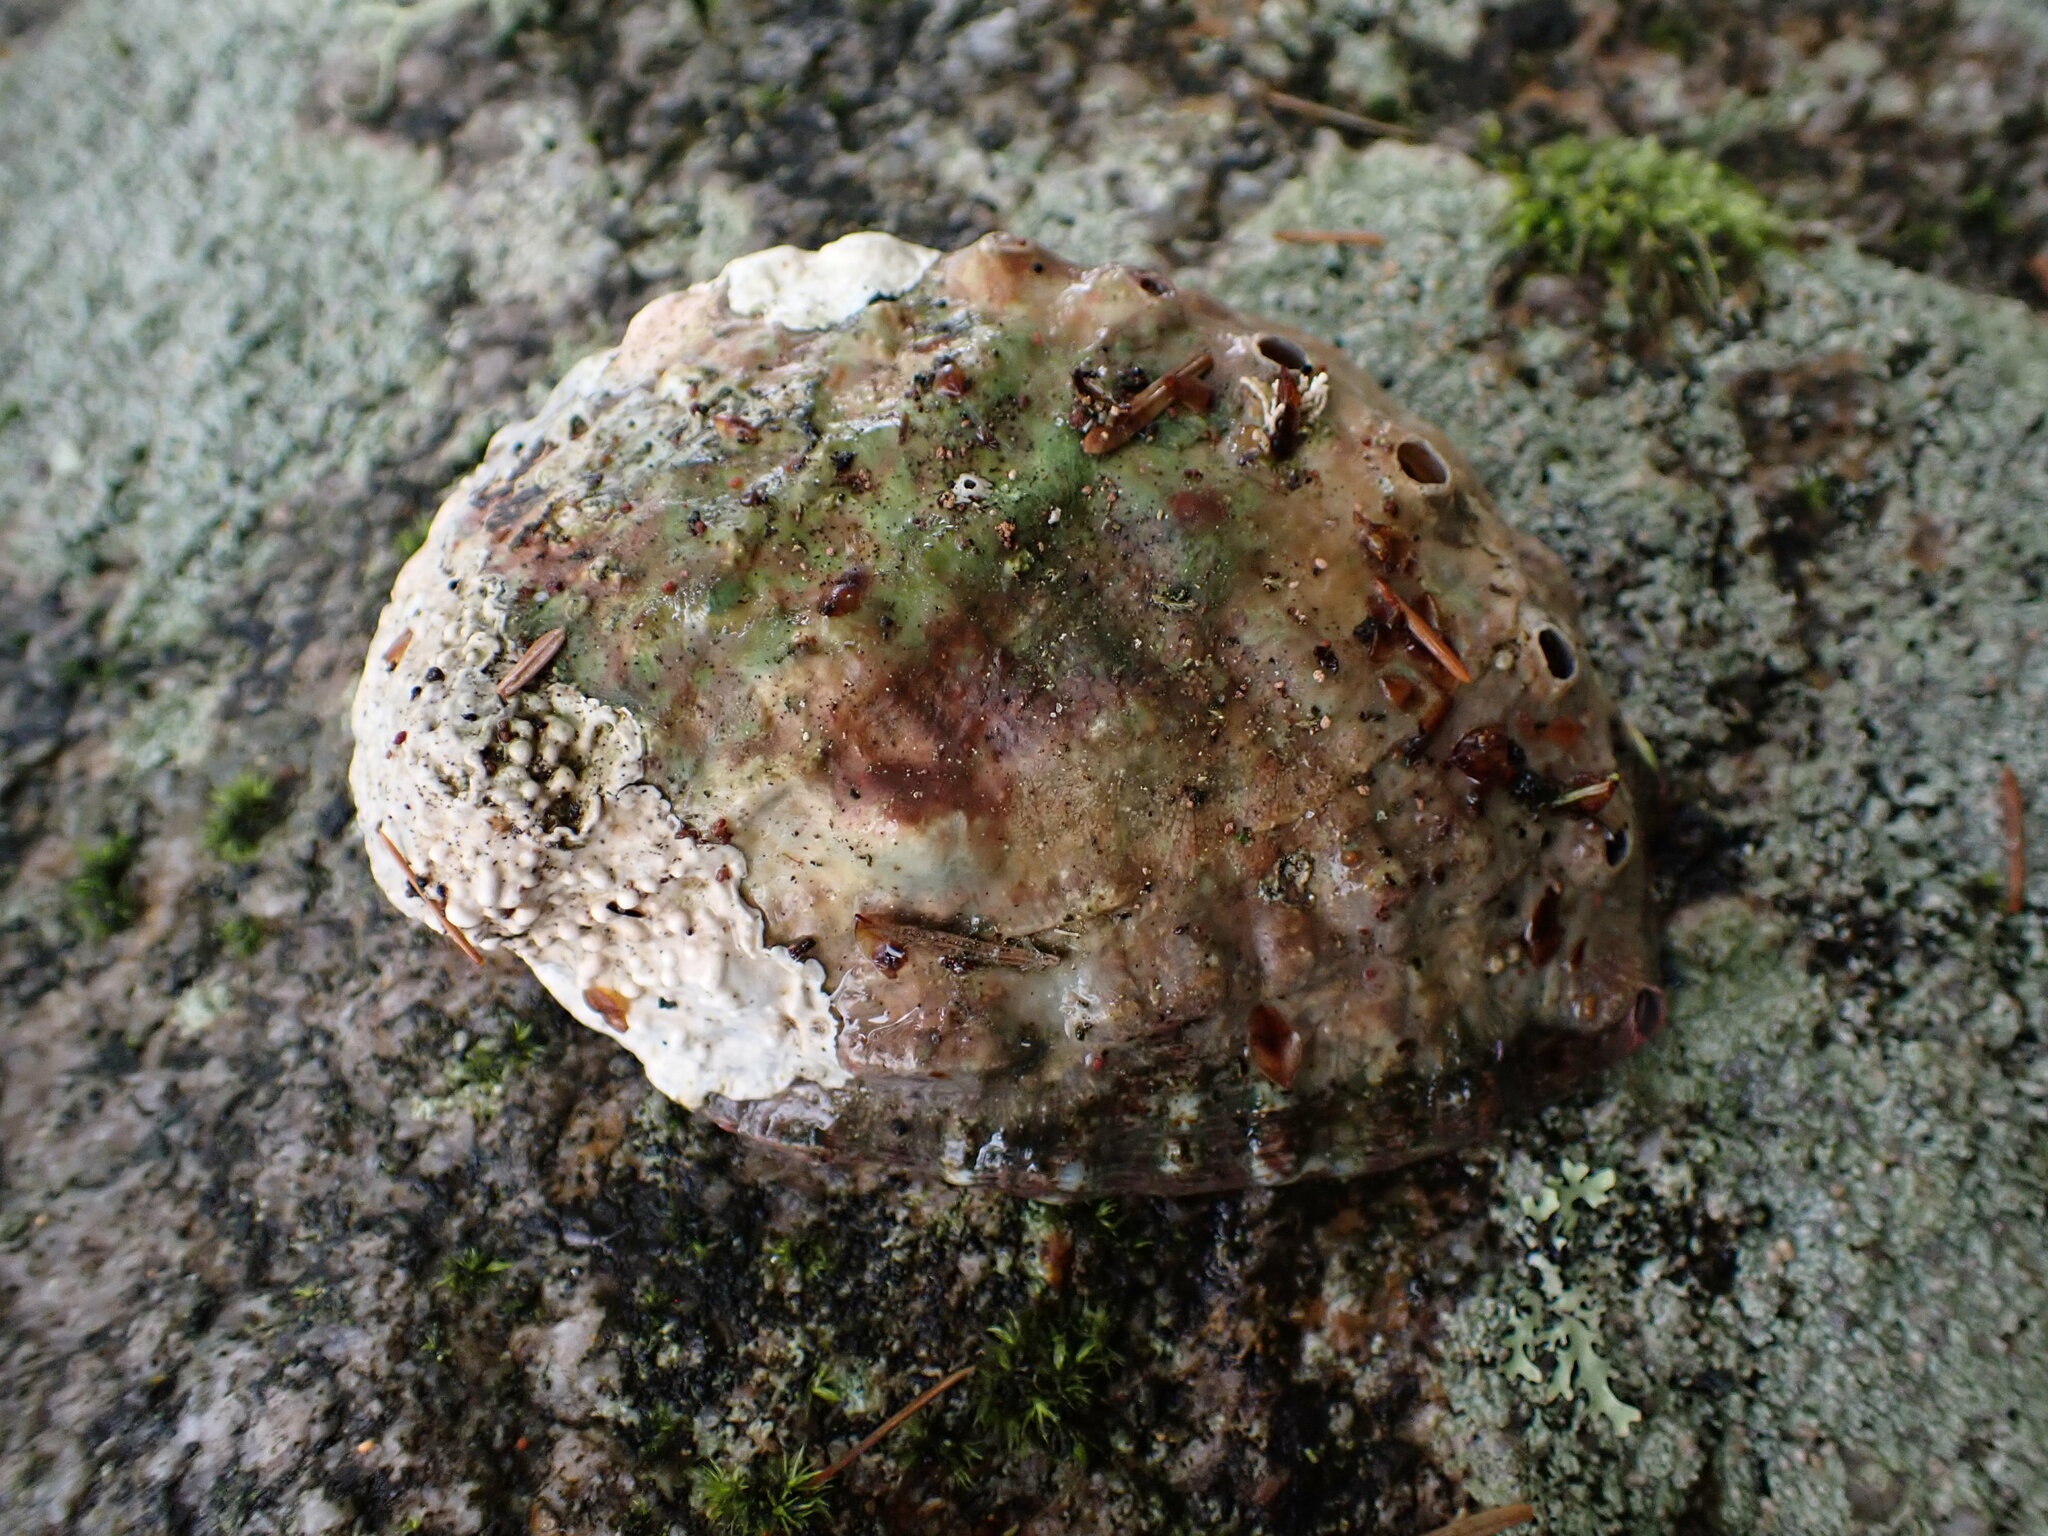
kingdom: Animalia
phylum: Mollusca
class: Gastropoda
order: Lepetellida
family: Haliotidae
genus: Haliotis
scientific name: Haliotis kamtschatkana
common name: Pinto abalone
